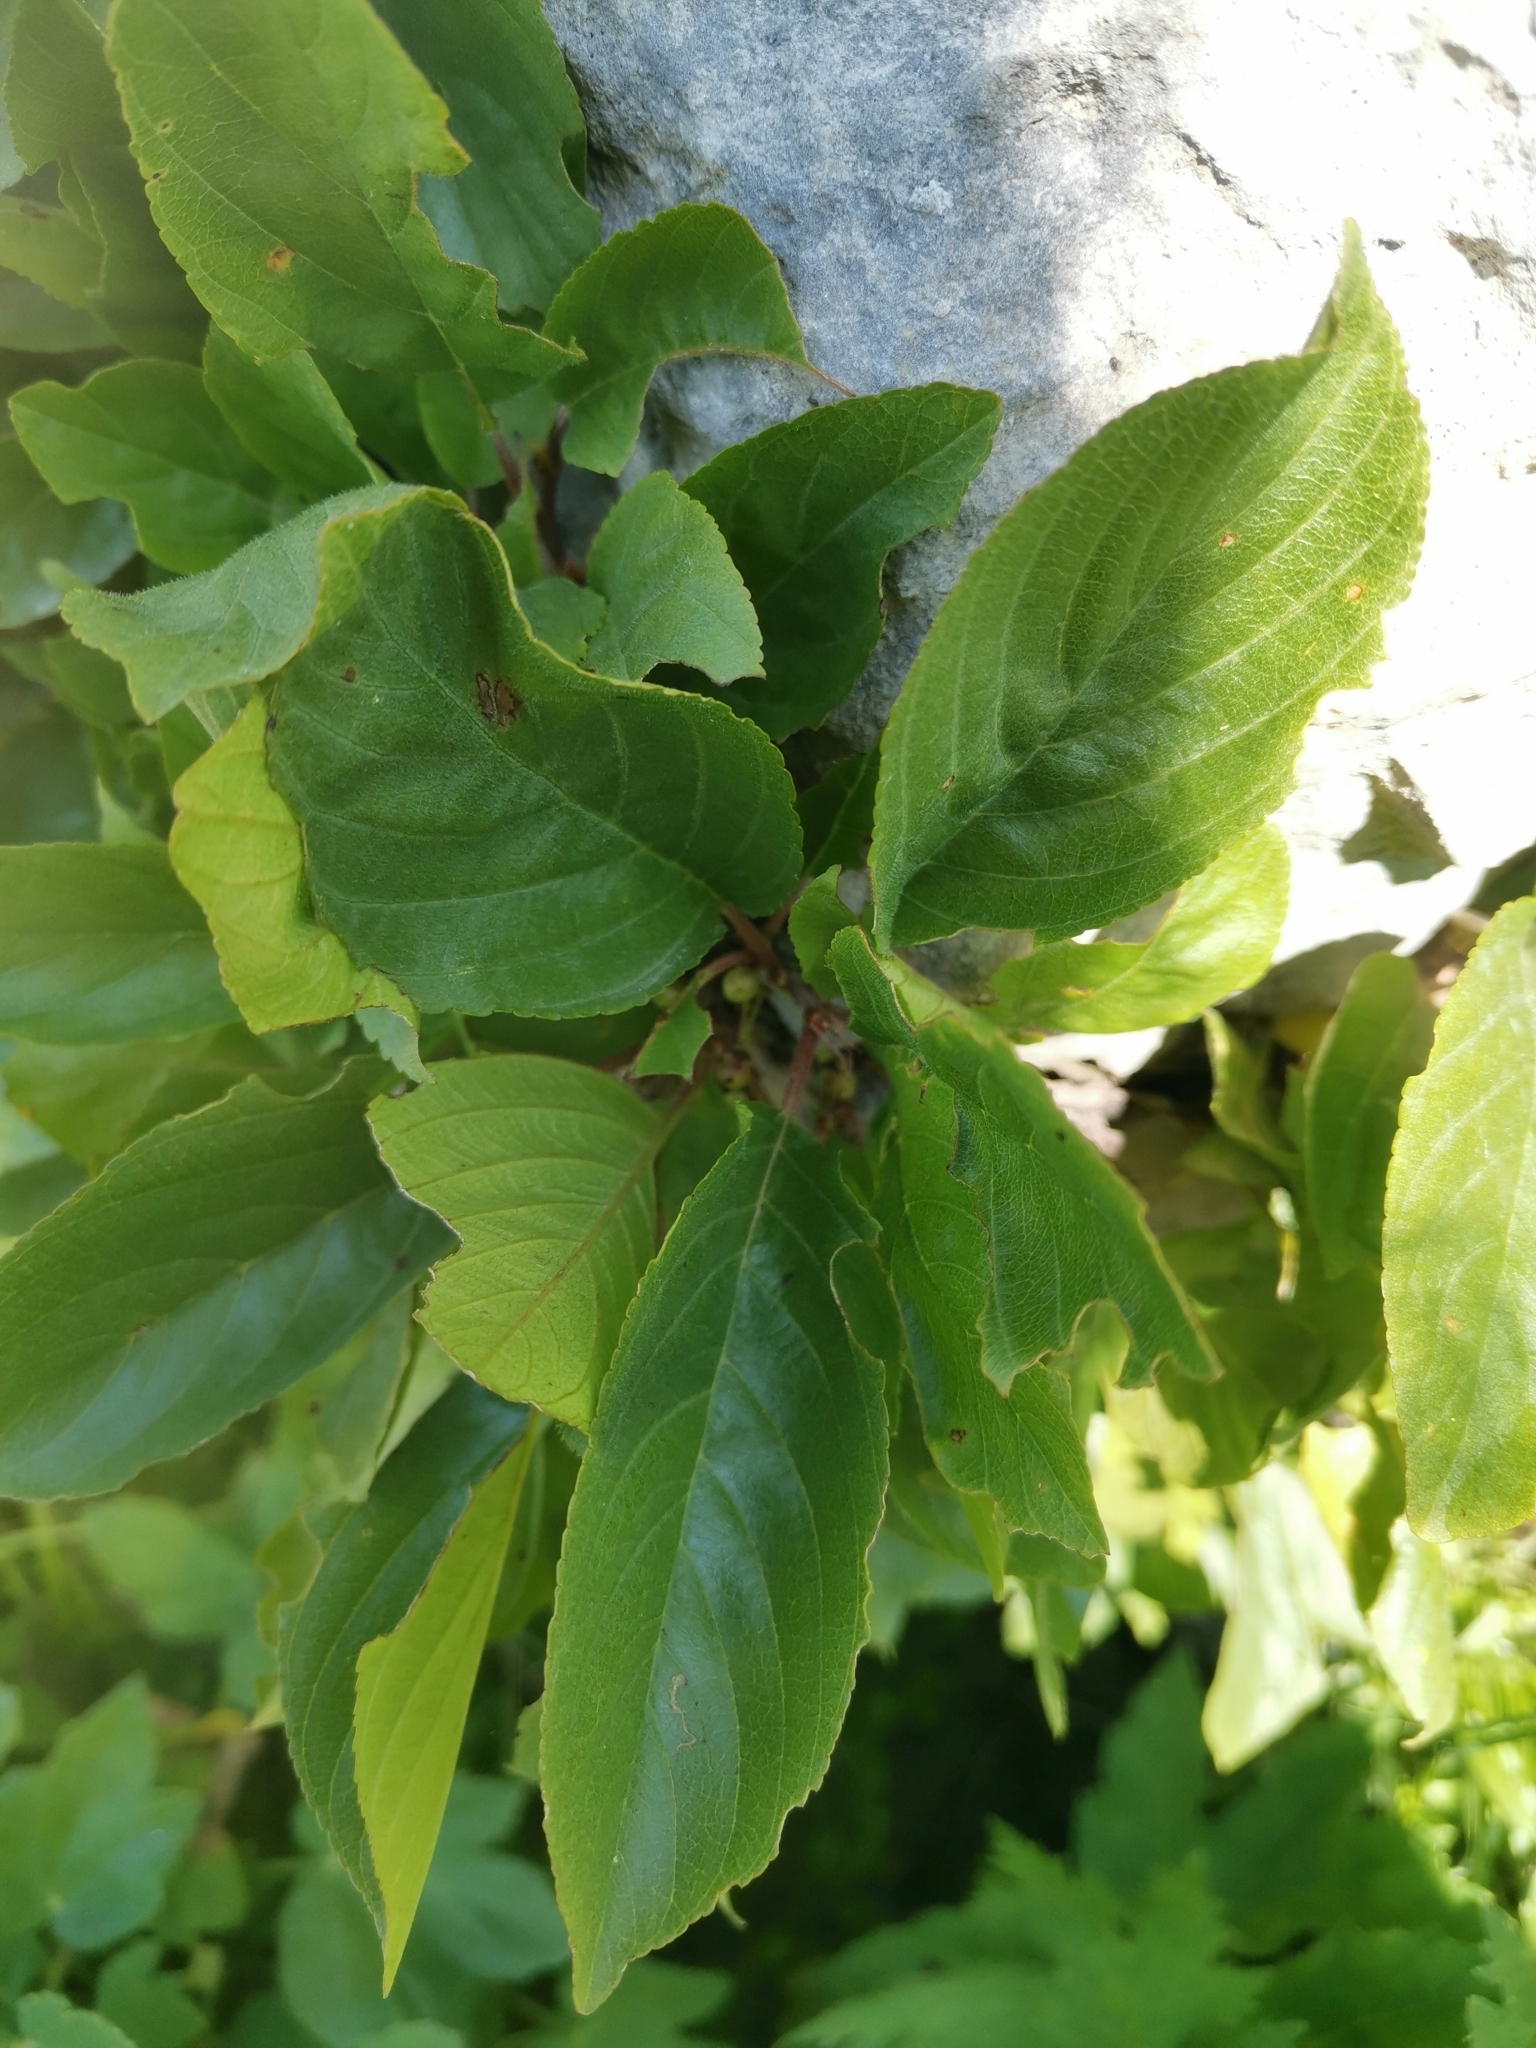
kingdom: Plantae
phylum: Tracheophyta
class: Magnoliopsida
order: Rosales
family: Rhamnaceae
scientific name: Rhamnaceae
